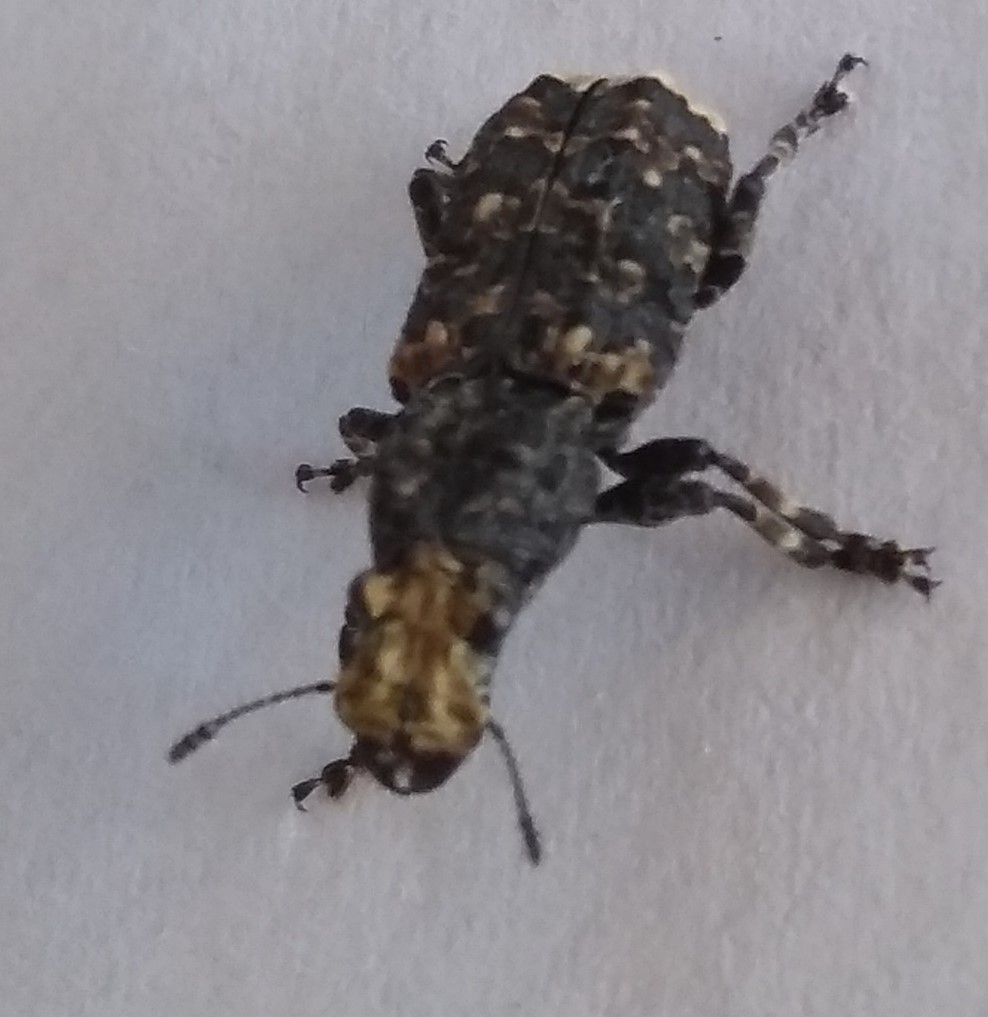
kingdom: Animalia
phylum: Arthropoda
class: Insecta
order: Coleoptera
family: Anthribidae
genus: Platyrhinus
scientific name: Platyrhinus resinosus
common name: Cramp-ball fungus weevil
